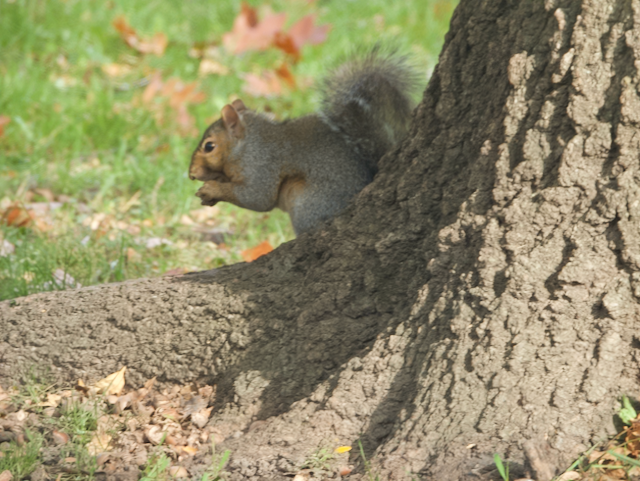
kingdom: Animalia
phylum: Chordata
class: Mammalia
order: Rodentia
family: Sciuridae
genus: Sciurus
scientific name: Sciurus carolinensis
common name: Eastern gray squirrel
